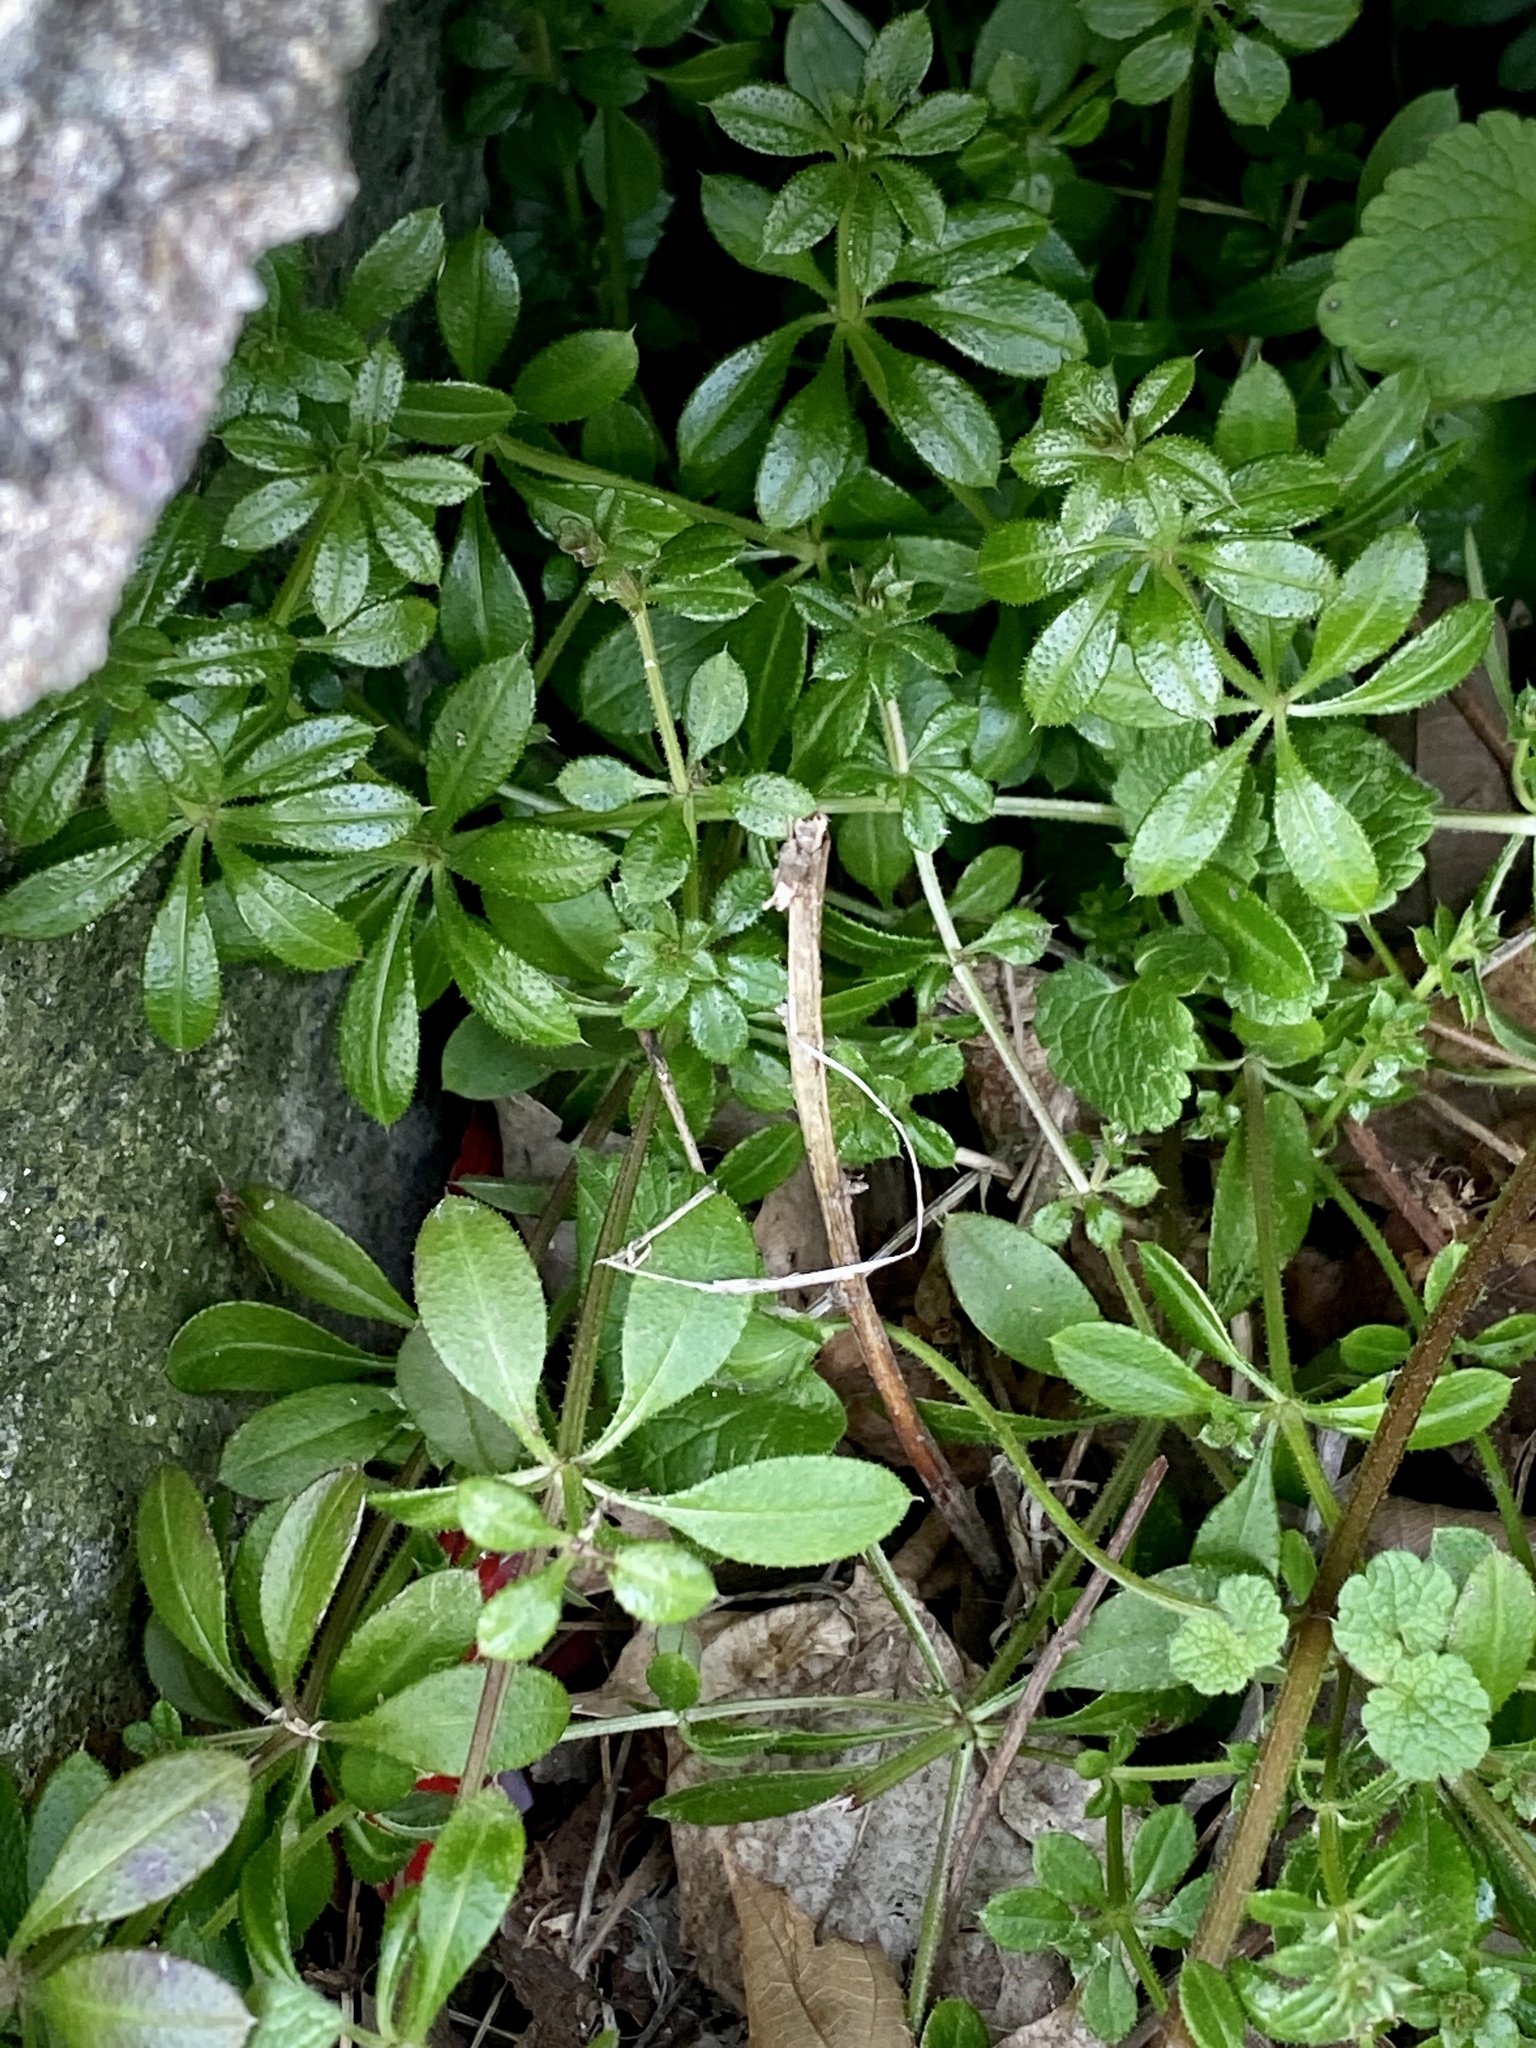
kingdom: Plantae
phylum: Tracheophyta
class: Magnoliopsida
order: Gentianales
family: Rubiaceae
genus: Galium
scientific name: Galium aparine
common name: Cleavers
